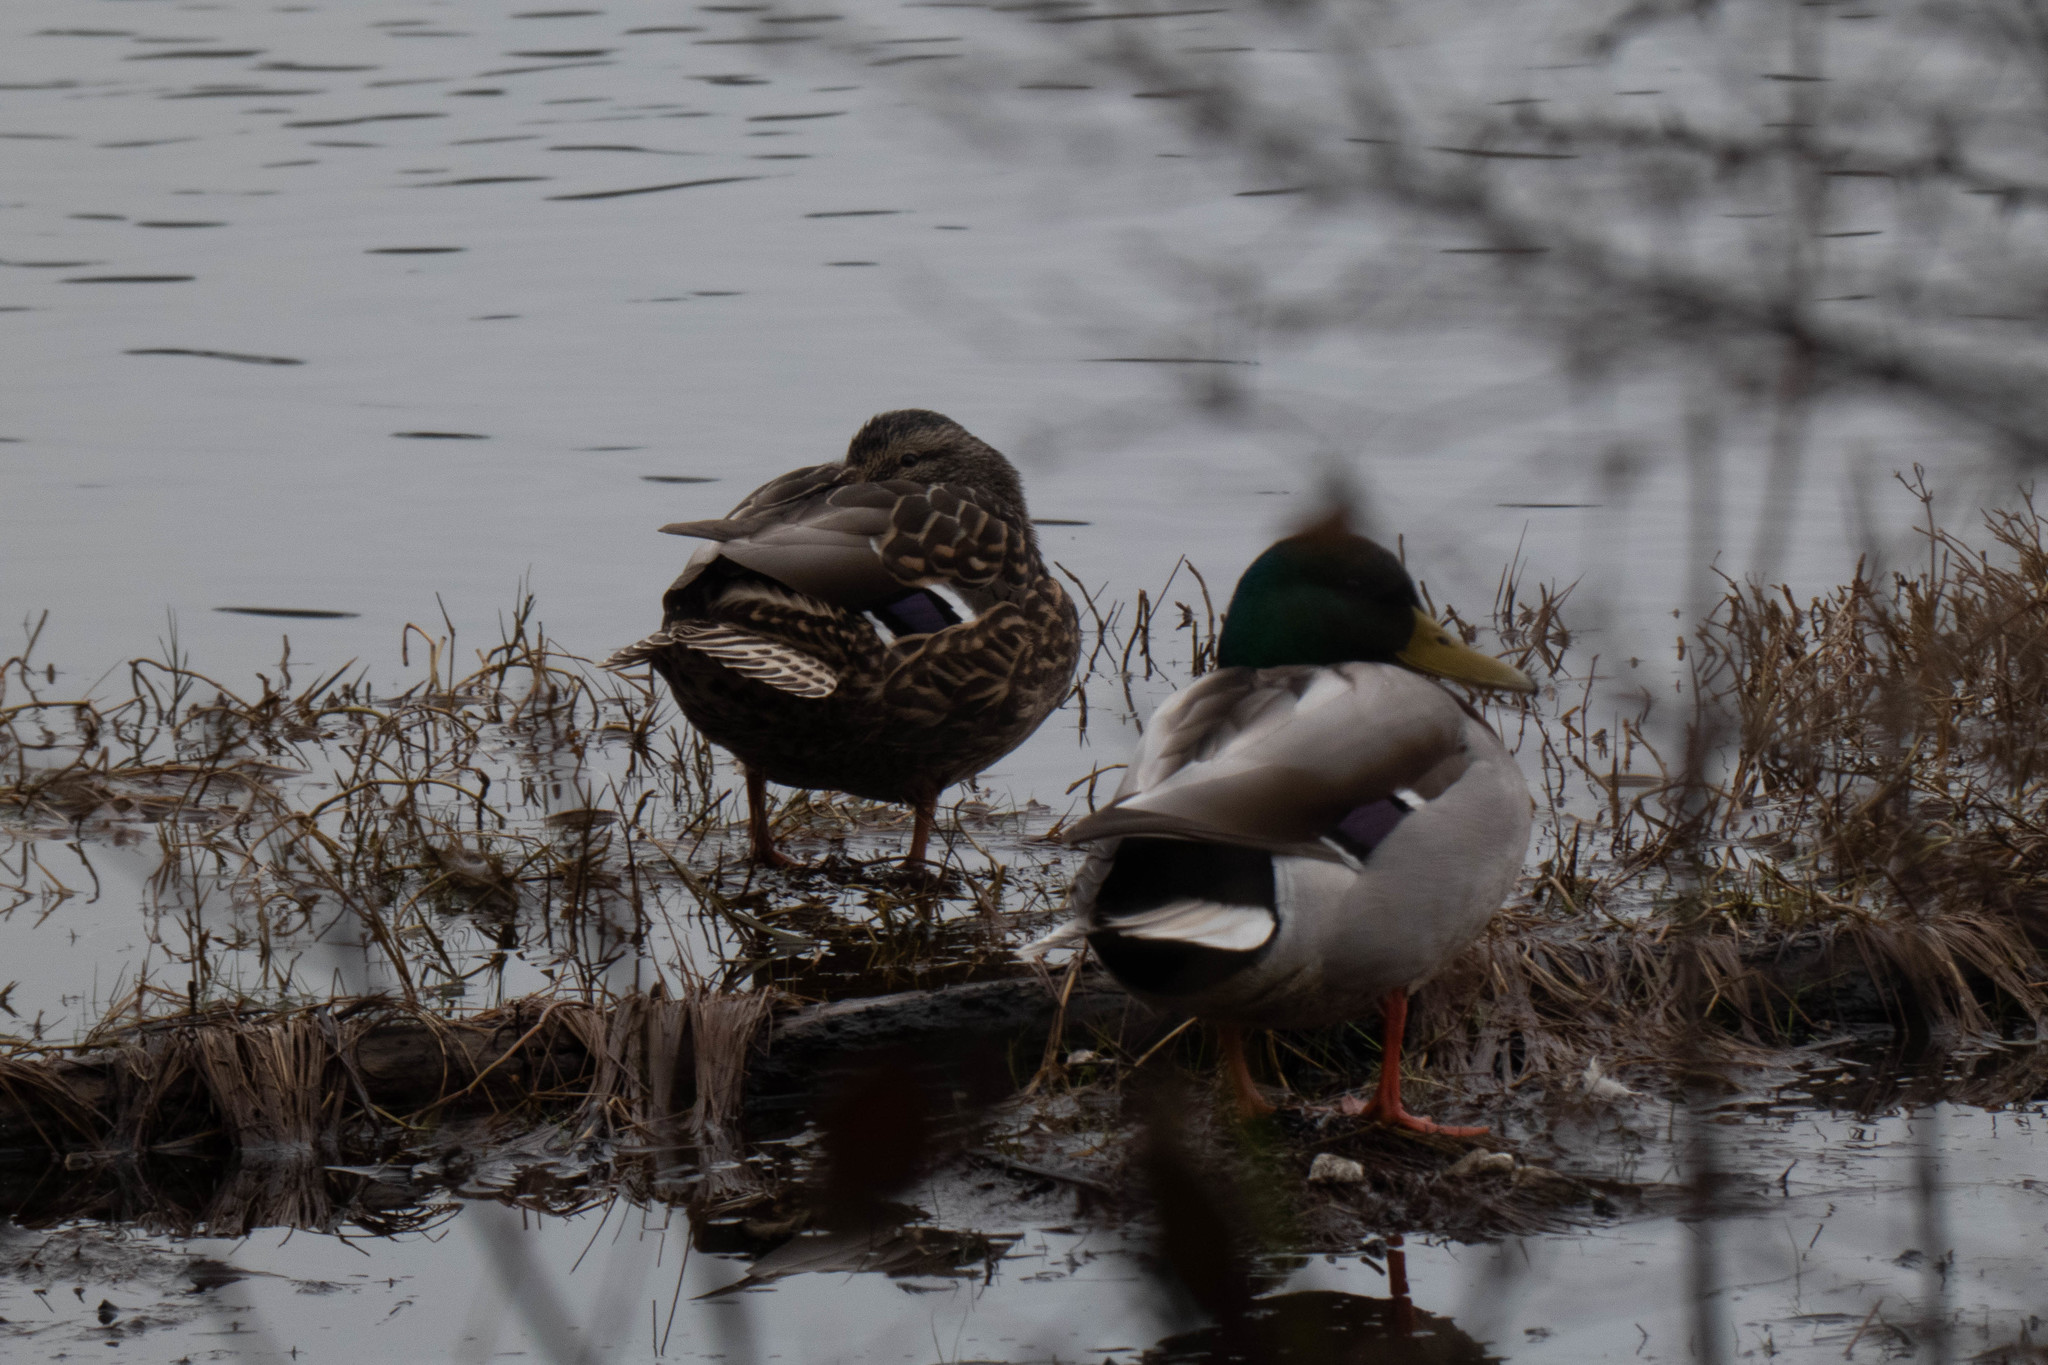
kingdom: Animalia
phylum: Chordata
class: Aves
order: Anseriformes
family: Anatidae
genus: Anas
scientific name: Anas platyrhynchos
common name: Mallard
